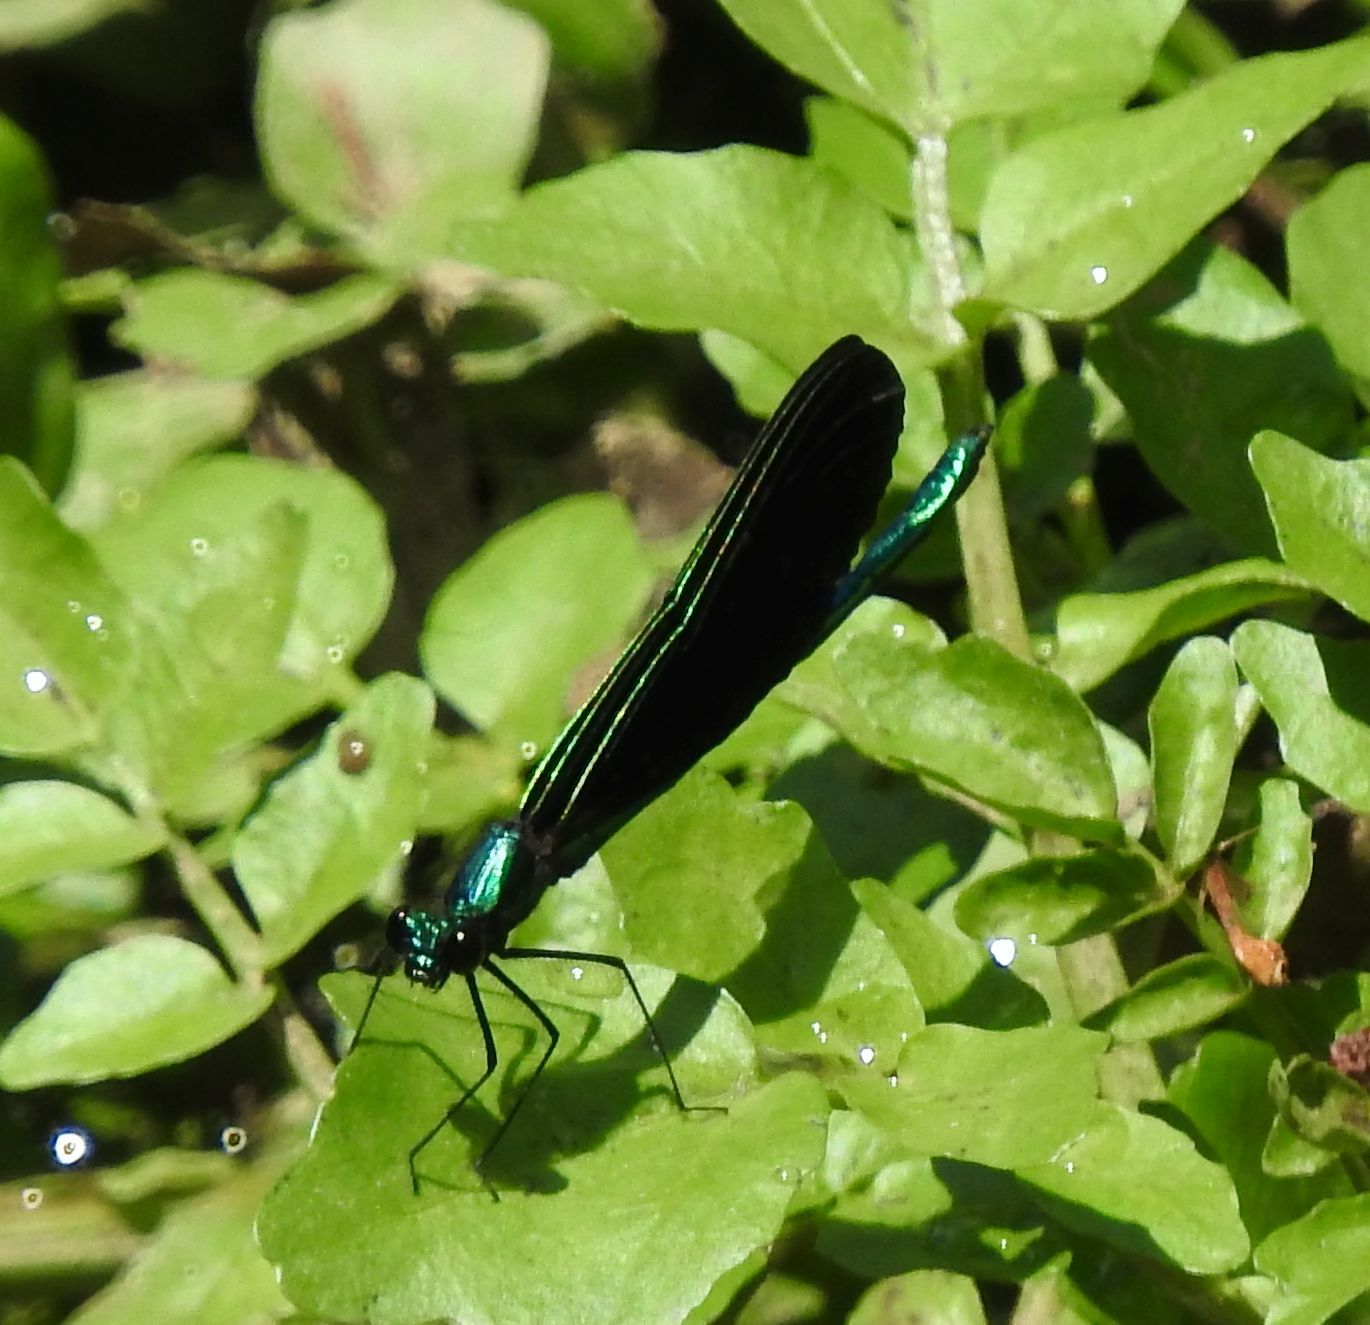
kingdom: Animalia
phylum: Arthropoda
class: Insecta
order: Odonata
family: Calopterygidae
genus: Calopteryx
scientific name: Calopteryx maculata
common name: Ebony jewelwing
